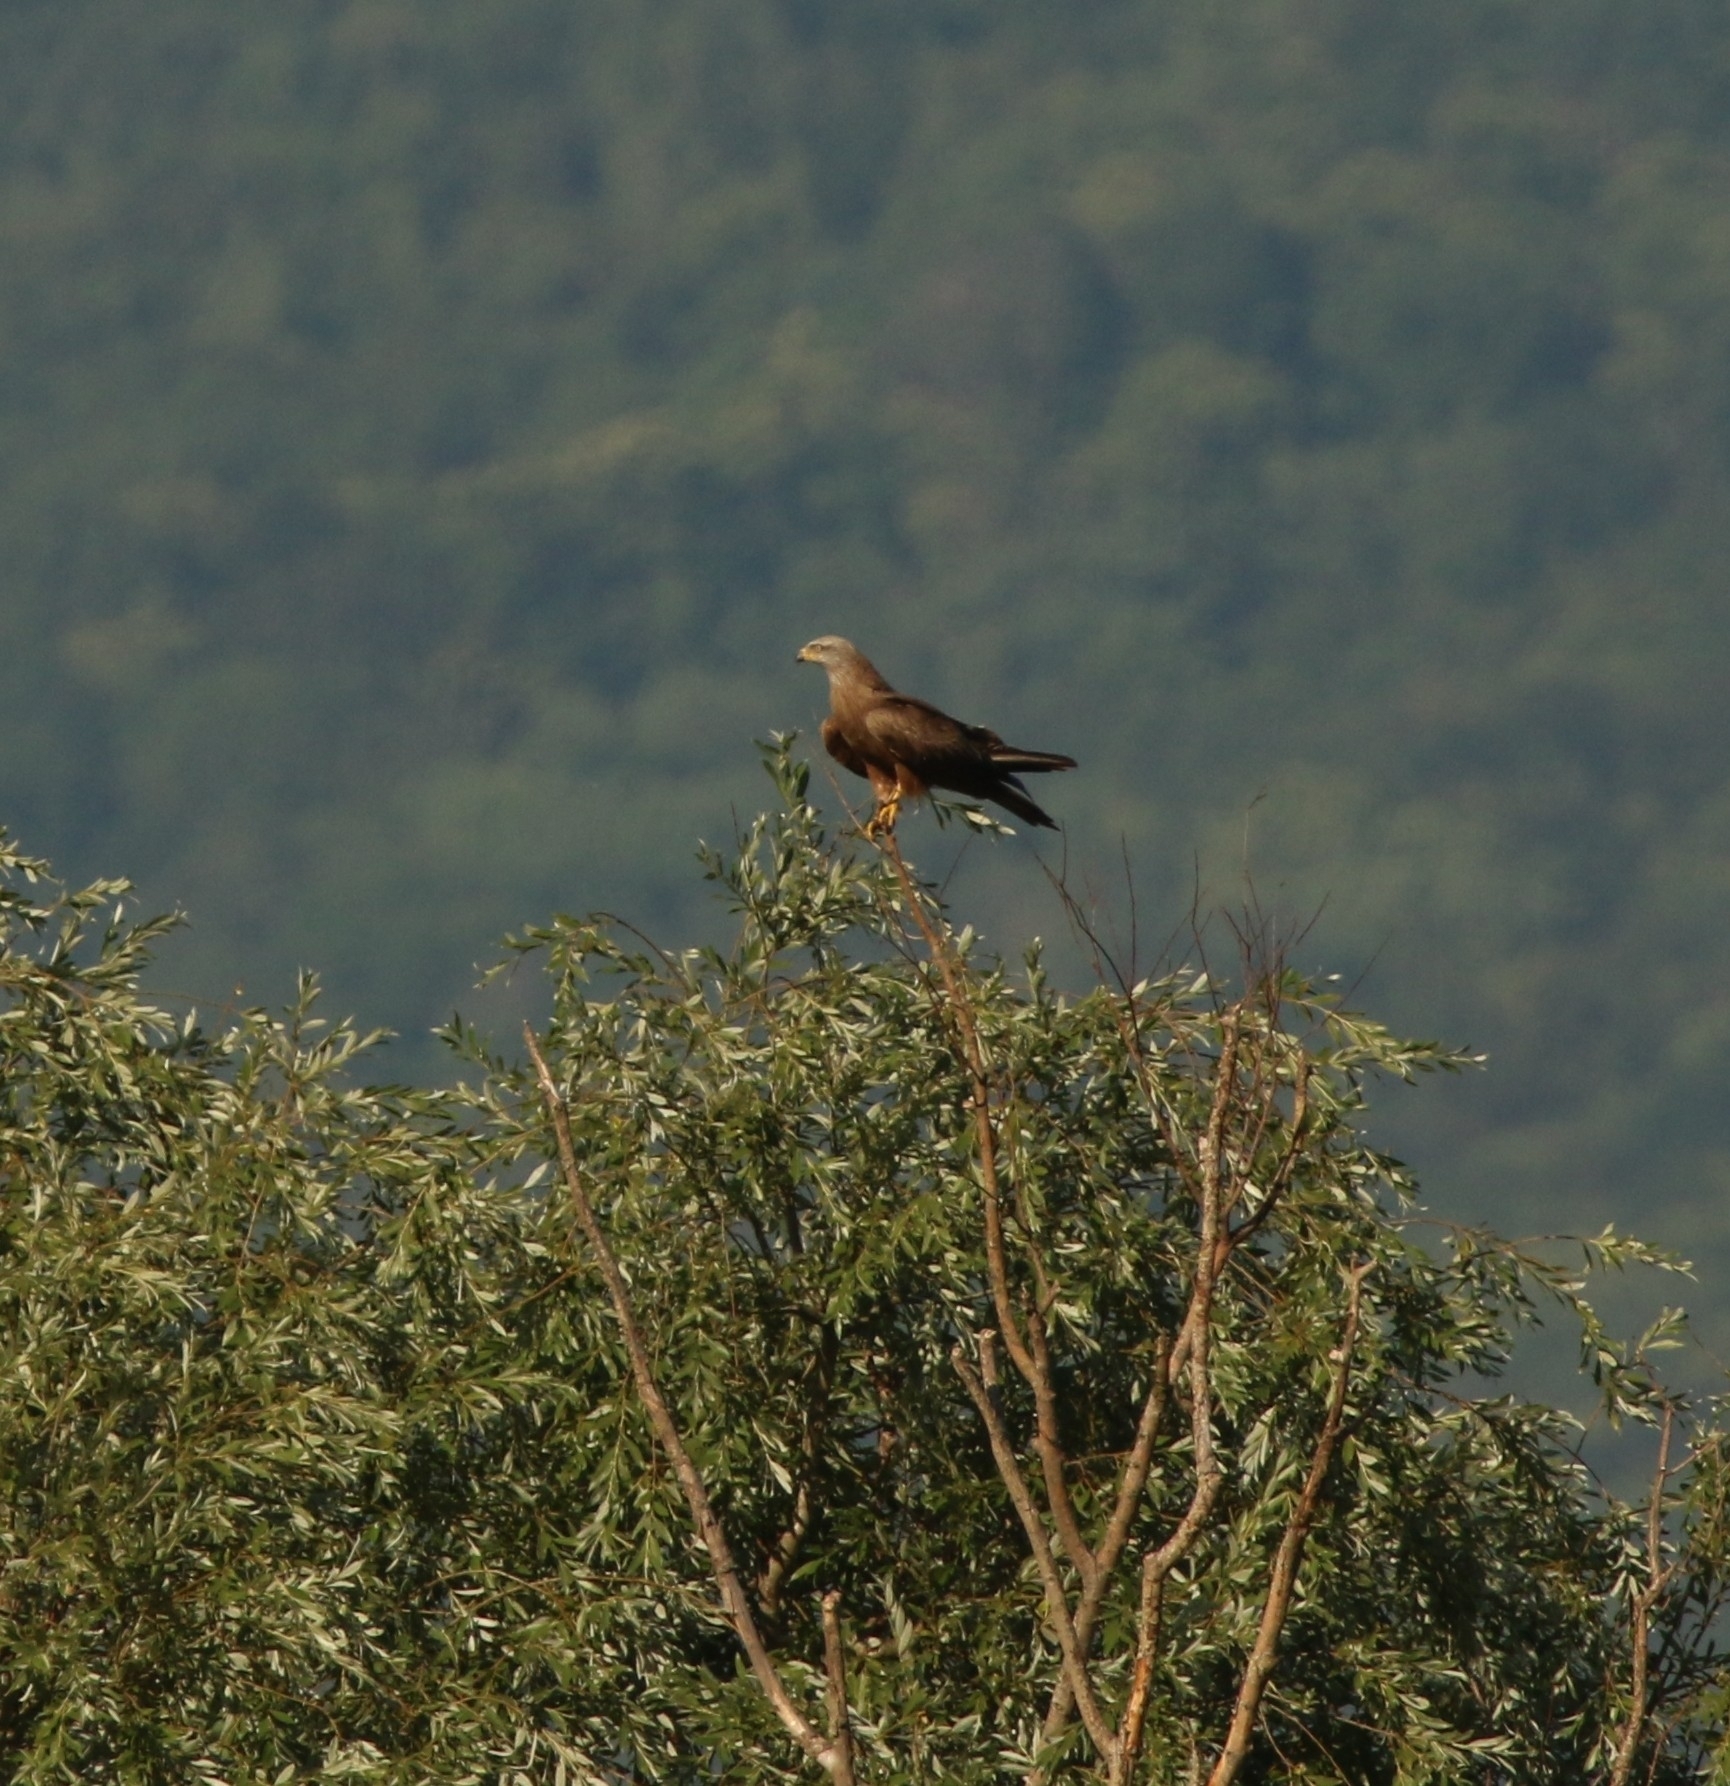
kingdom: Animalia
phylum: Chordata
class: Aves
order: Accipitriformes
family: Accipitridae
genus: Milvus
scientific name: Milvus migrans
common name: Black kite
